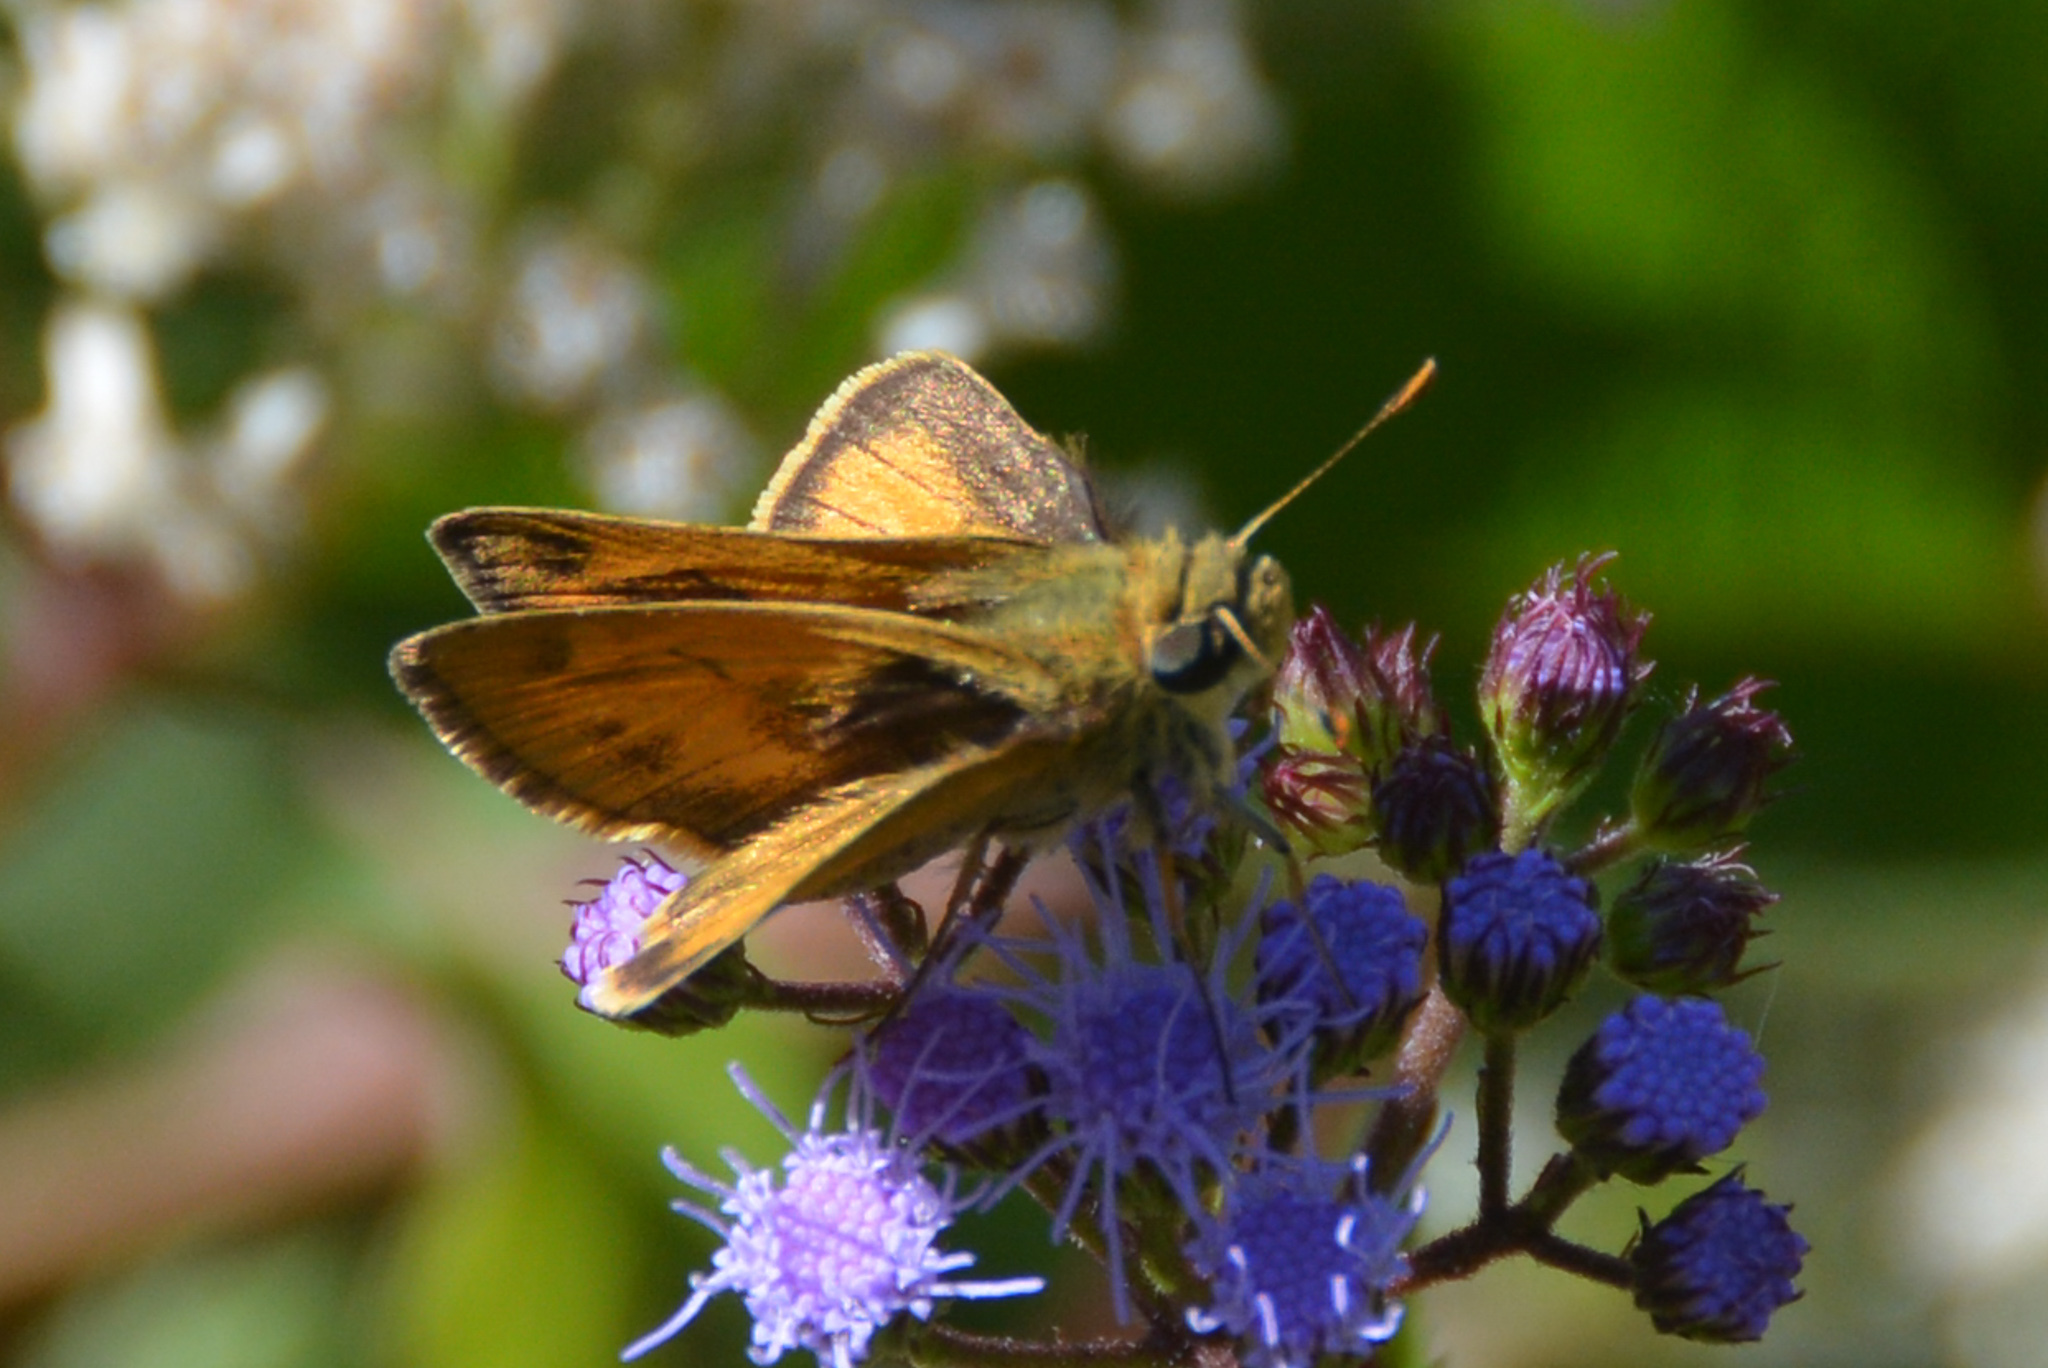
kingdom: Animalia
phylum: Arthropoda
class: Insecta
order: Lepidoptera
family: Hesperiidae
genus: Polites
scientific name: Polites vibex
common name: Whirlabout
